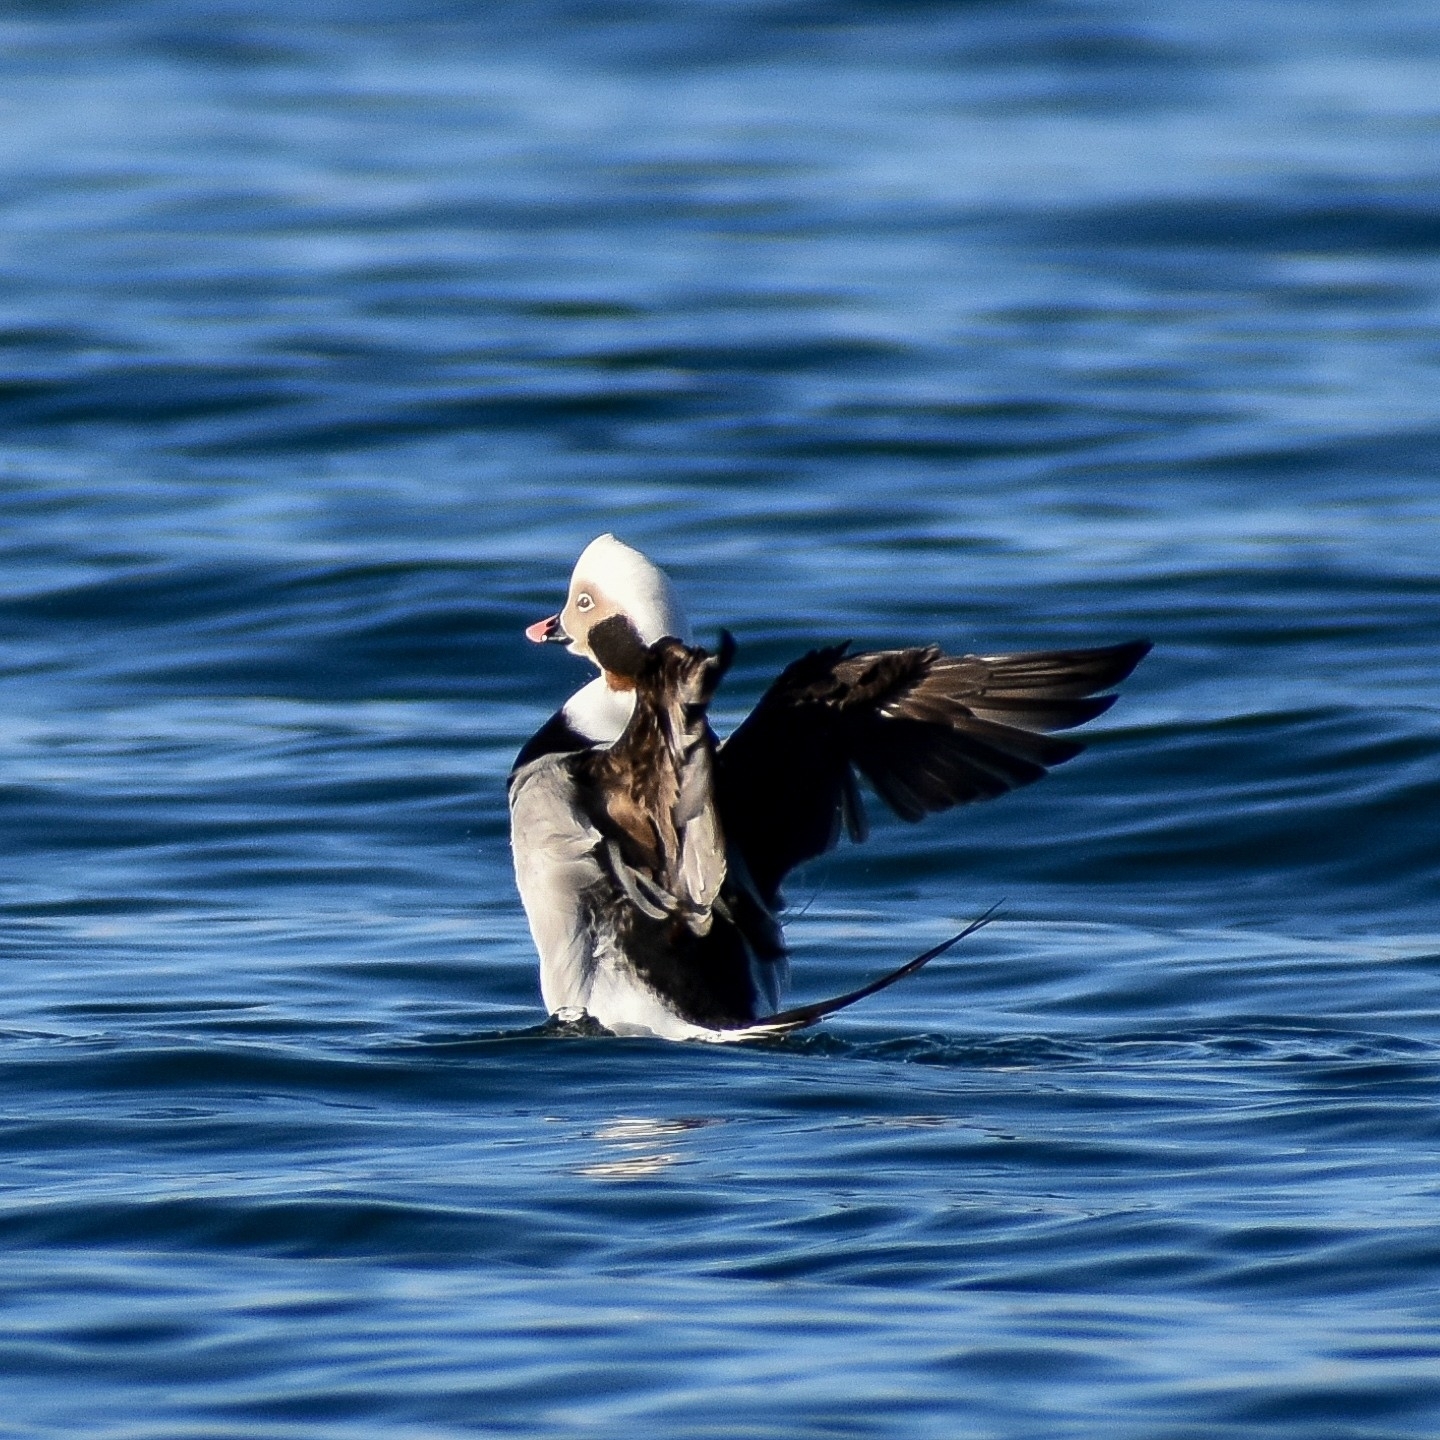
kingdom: Animalia
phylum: Chordata
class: Aves
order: Anseriformes
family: Anatidae
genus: Clangula
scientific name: Clangula hyemalis
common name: Long-tailed duck
